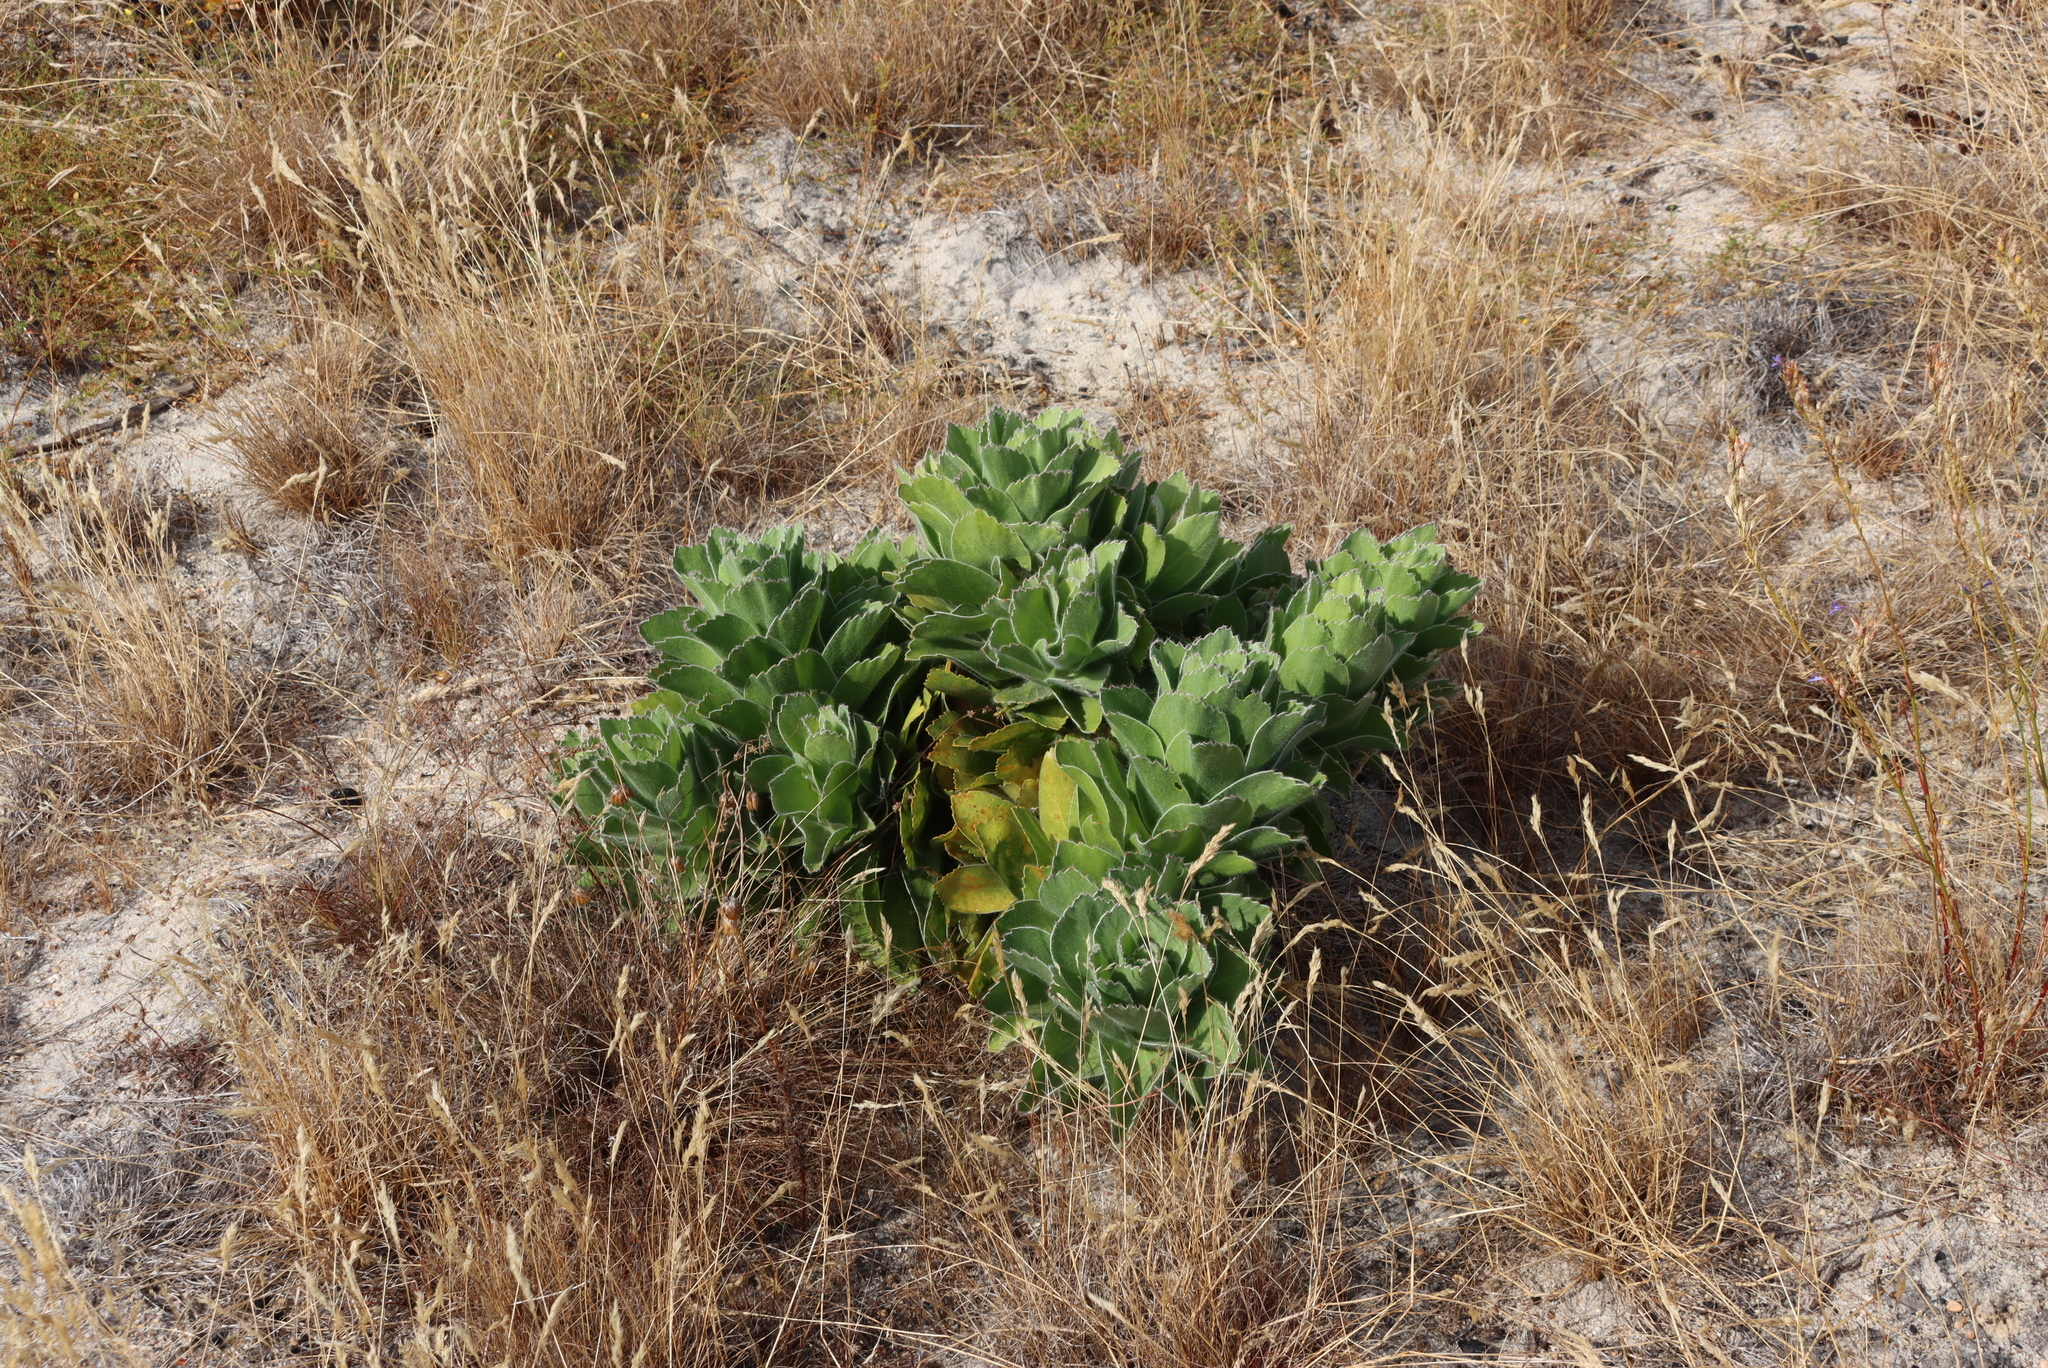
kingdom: Plantae
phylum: Tracheophyta
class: Magnoliopsida
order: Proteales
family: Proteaceae
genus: Leucospermum
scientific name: Leucospermum conocarpodendron
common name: Tree pincushion
